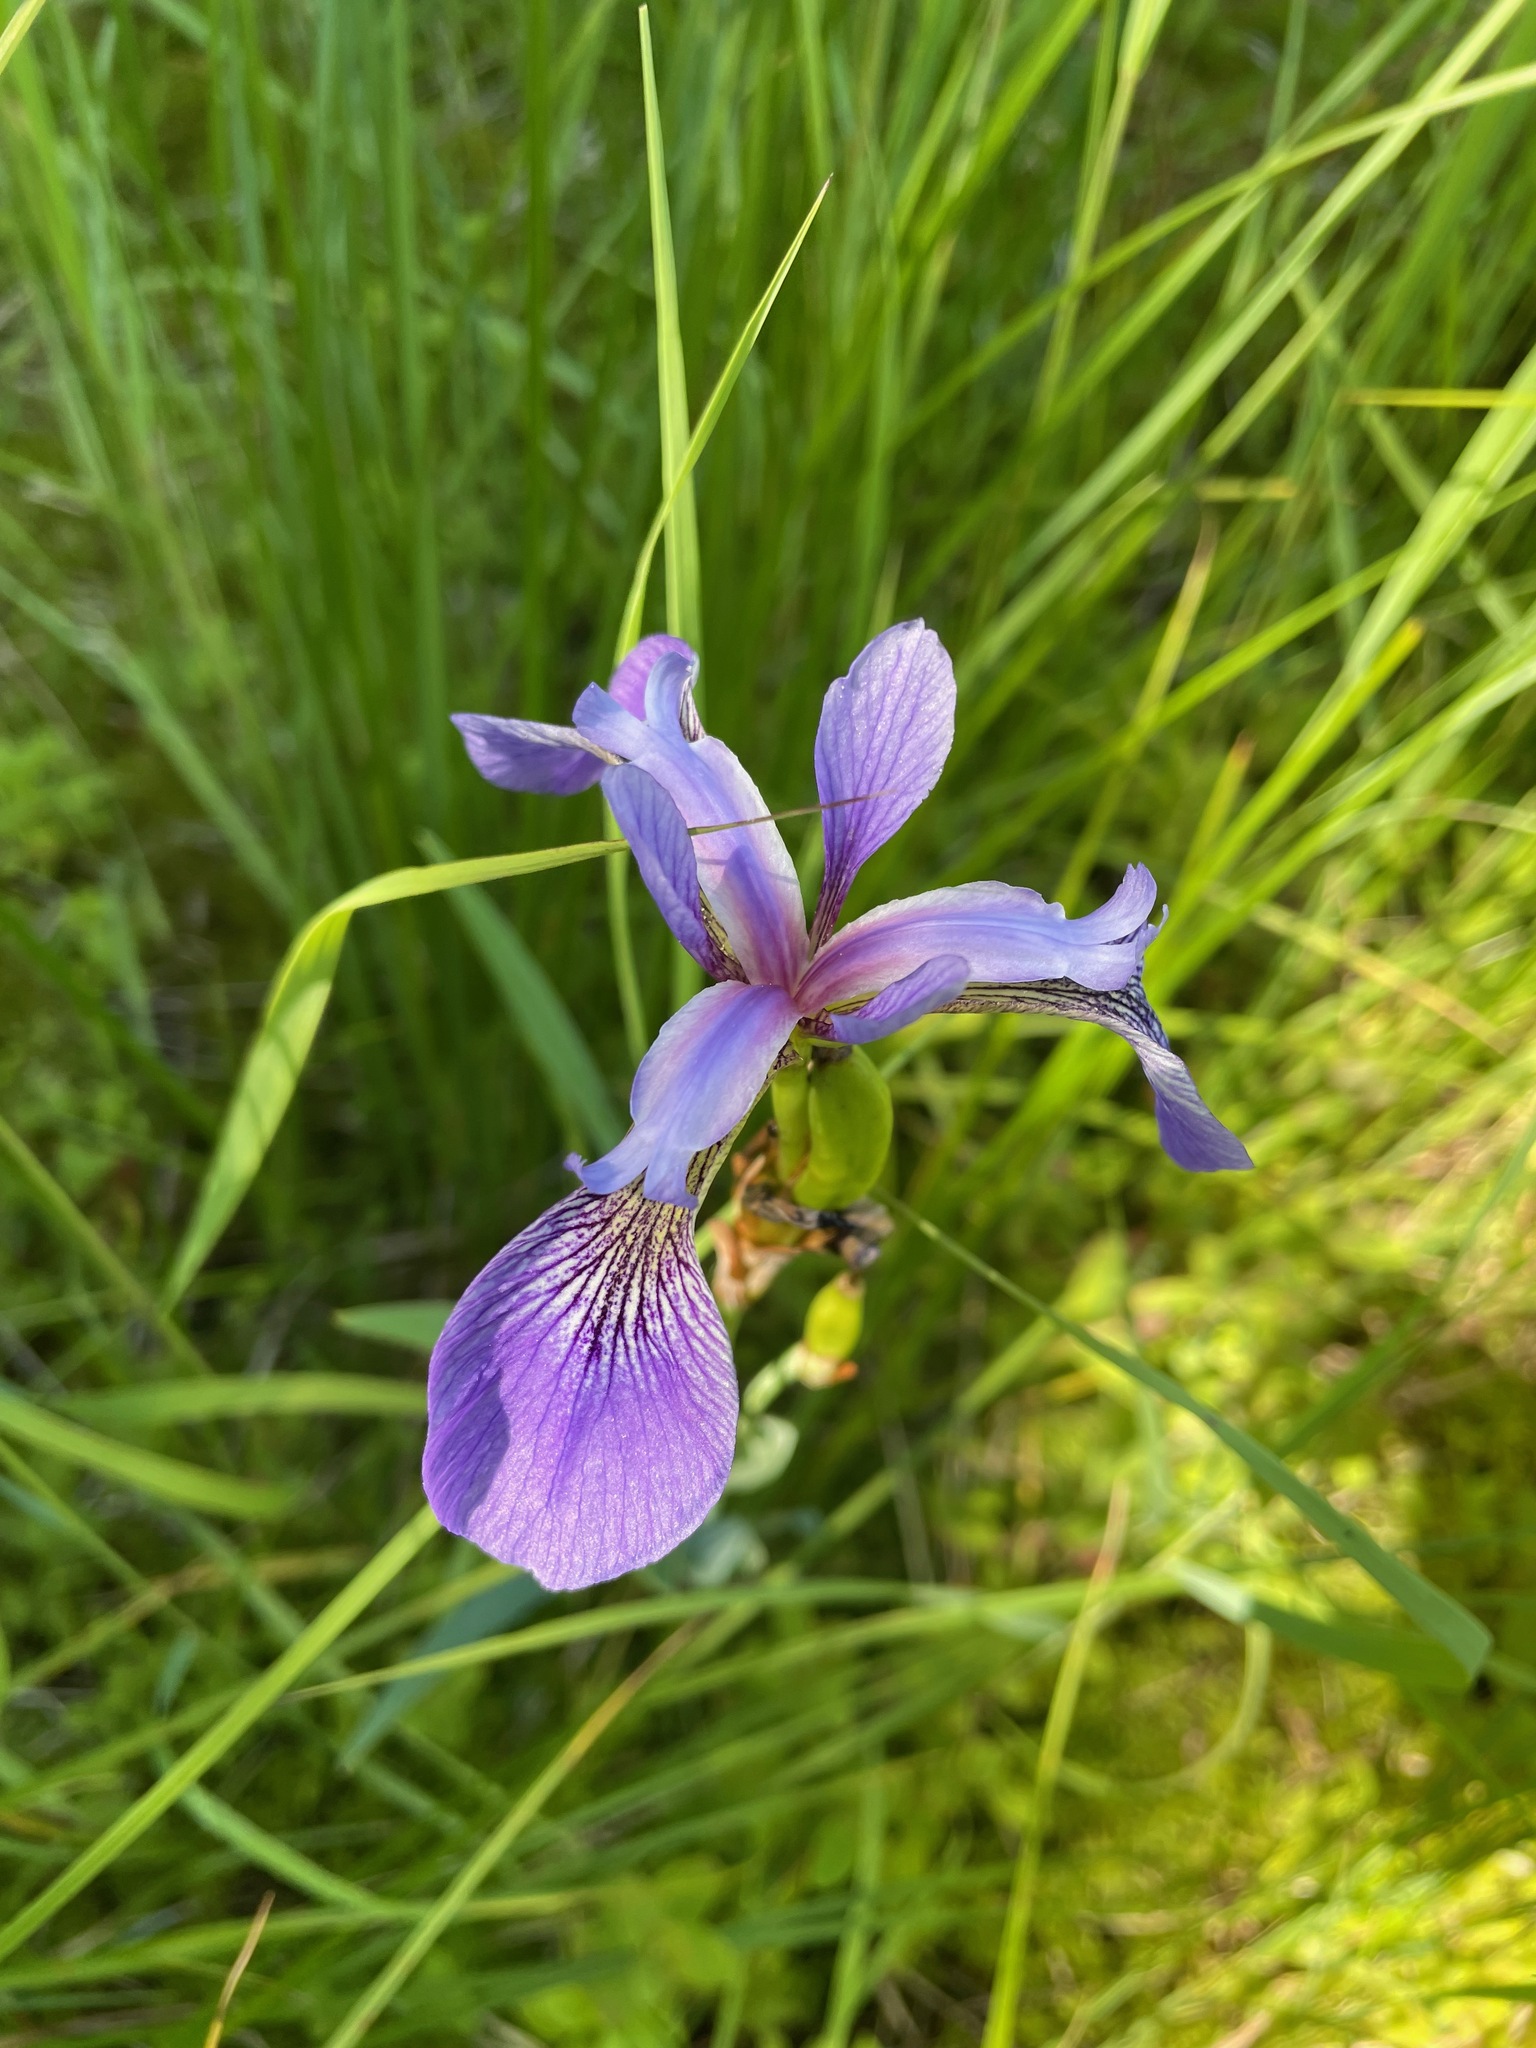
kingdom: Plantae
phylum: Tracheophyta
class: Liliopsida
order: Asparagales
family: Iridaceae
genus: Iris
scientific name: Iris versicolor
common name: Purple iris
